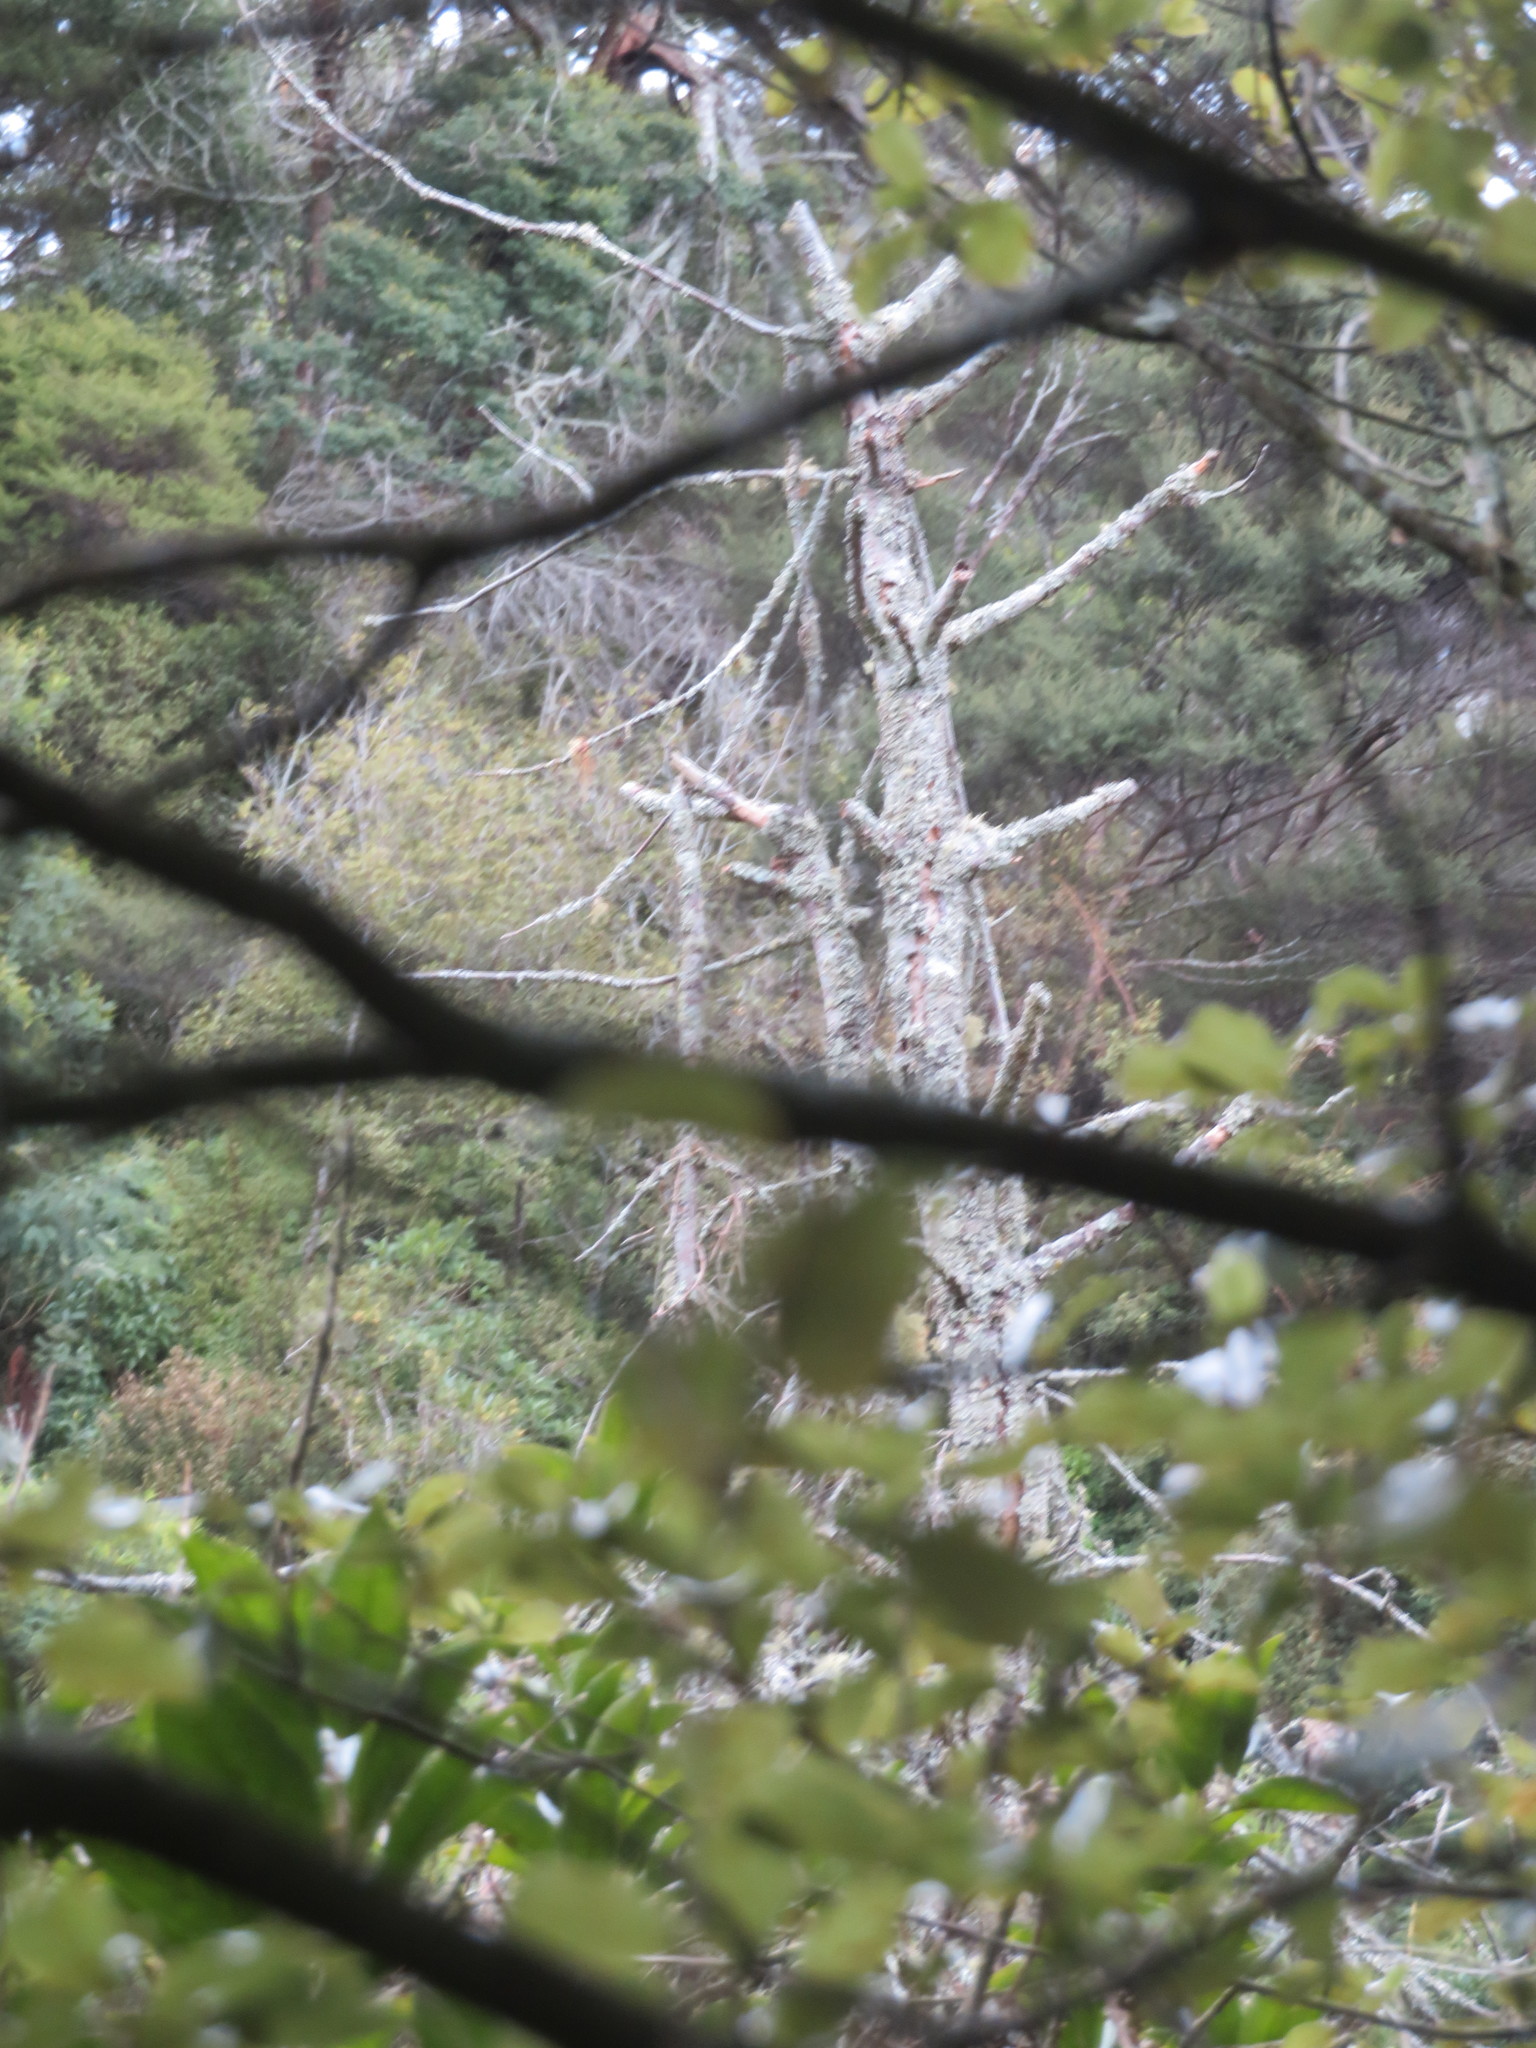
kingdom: Plantae
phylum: Tracheophyta
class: Pinopsida
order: Pinales
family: Phyllocladaceae
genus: Phyllocladus
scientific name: Phyllocladus trichomanoides
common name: Celery pine
